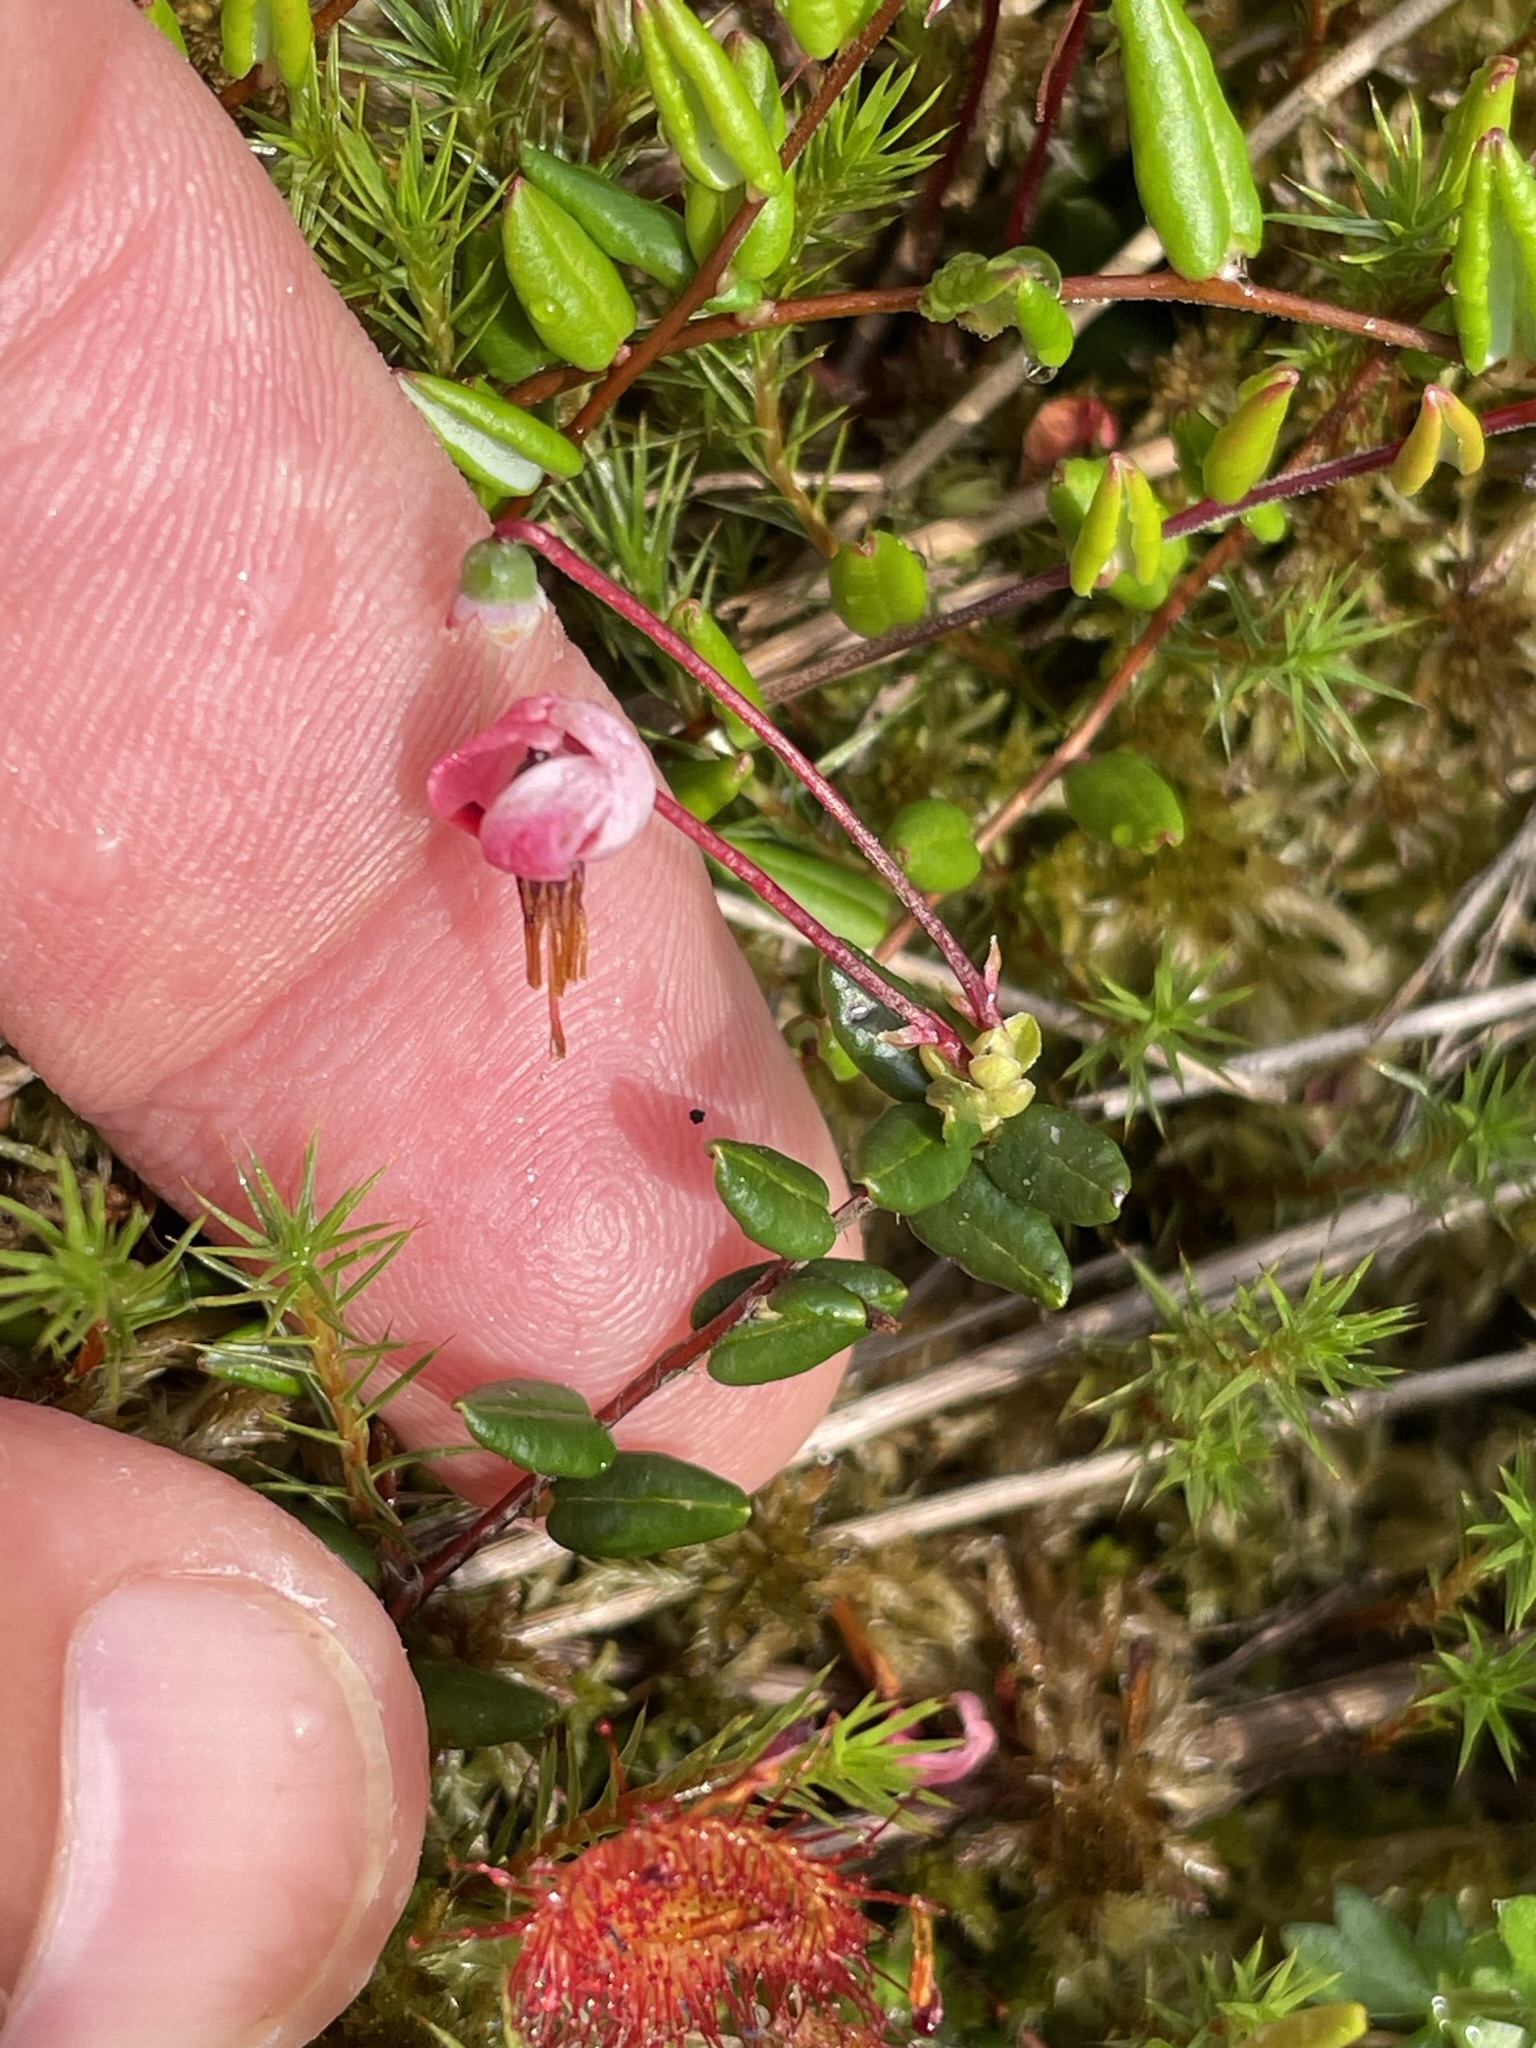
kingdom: Plantae
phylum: Tracheophyta
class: Magnoliopsida
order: Ericales
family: Ericaceae
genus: Vaccinium
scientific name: Vaccinium oxycoccos
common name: Cranberry
